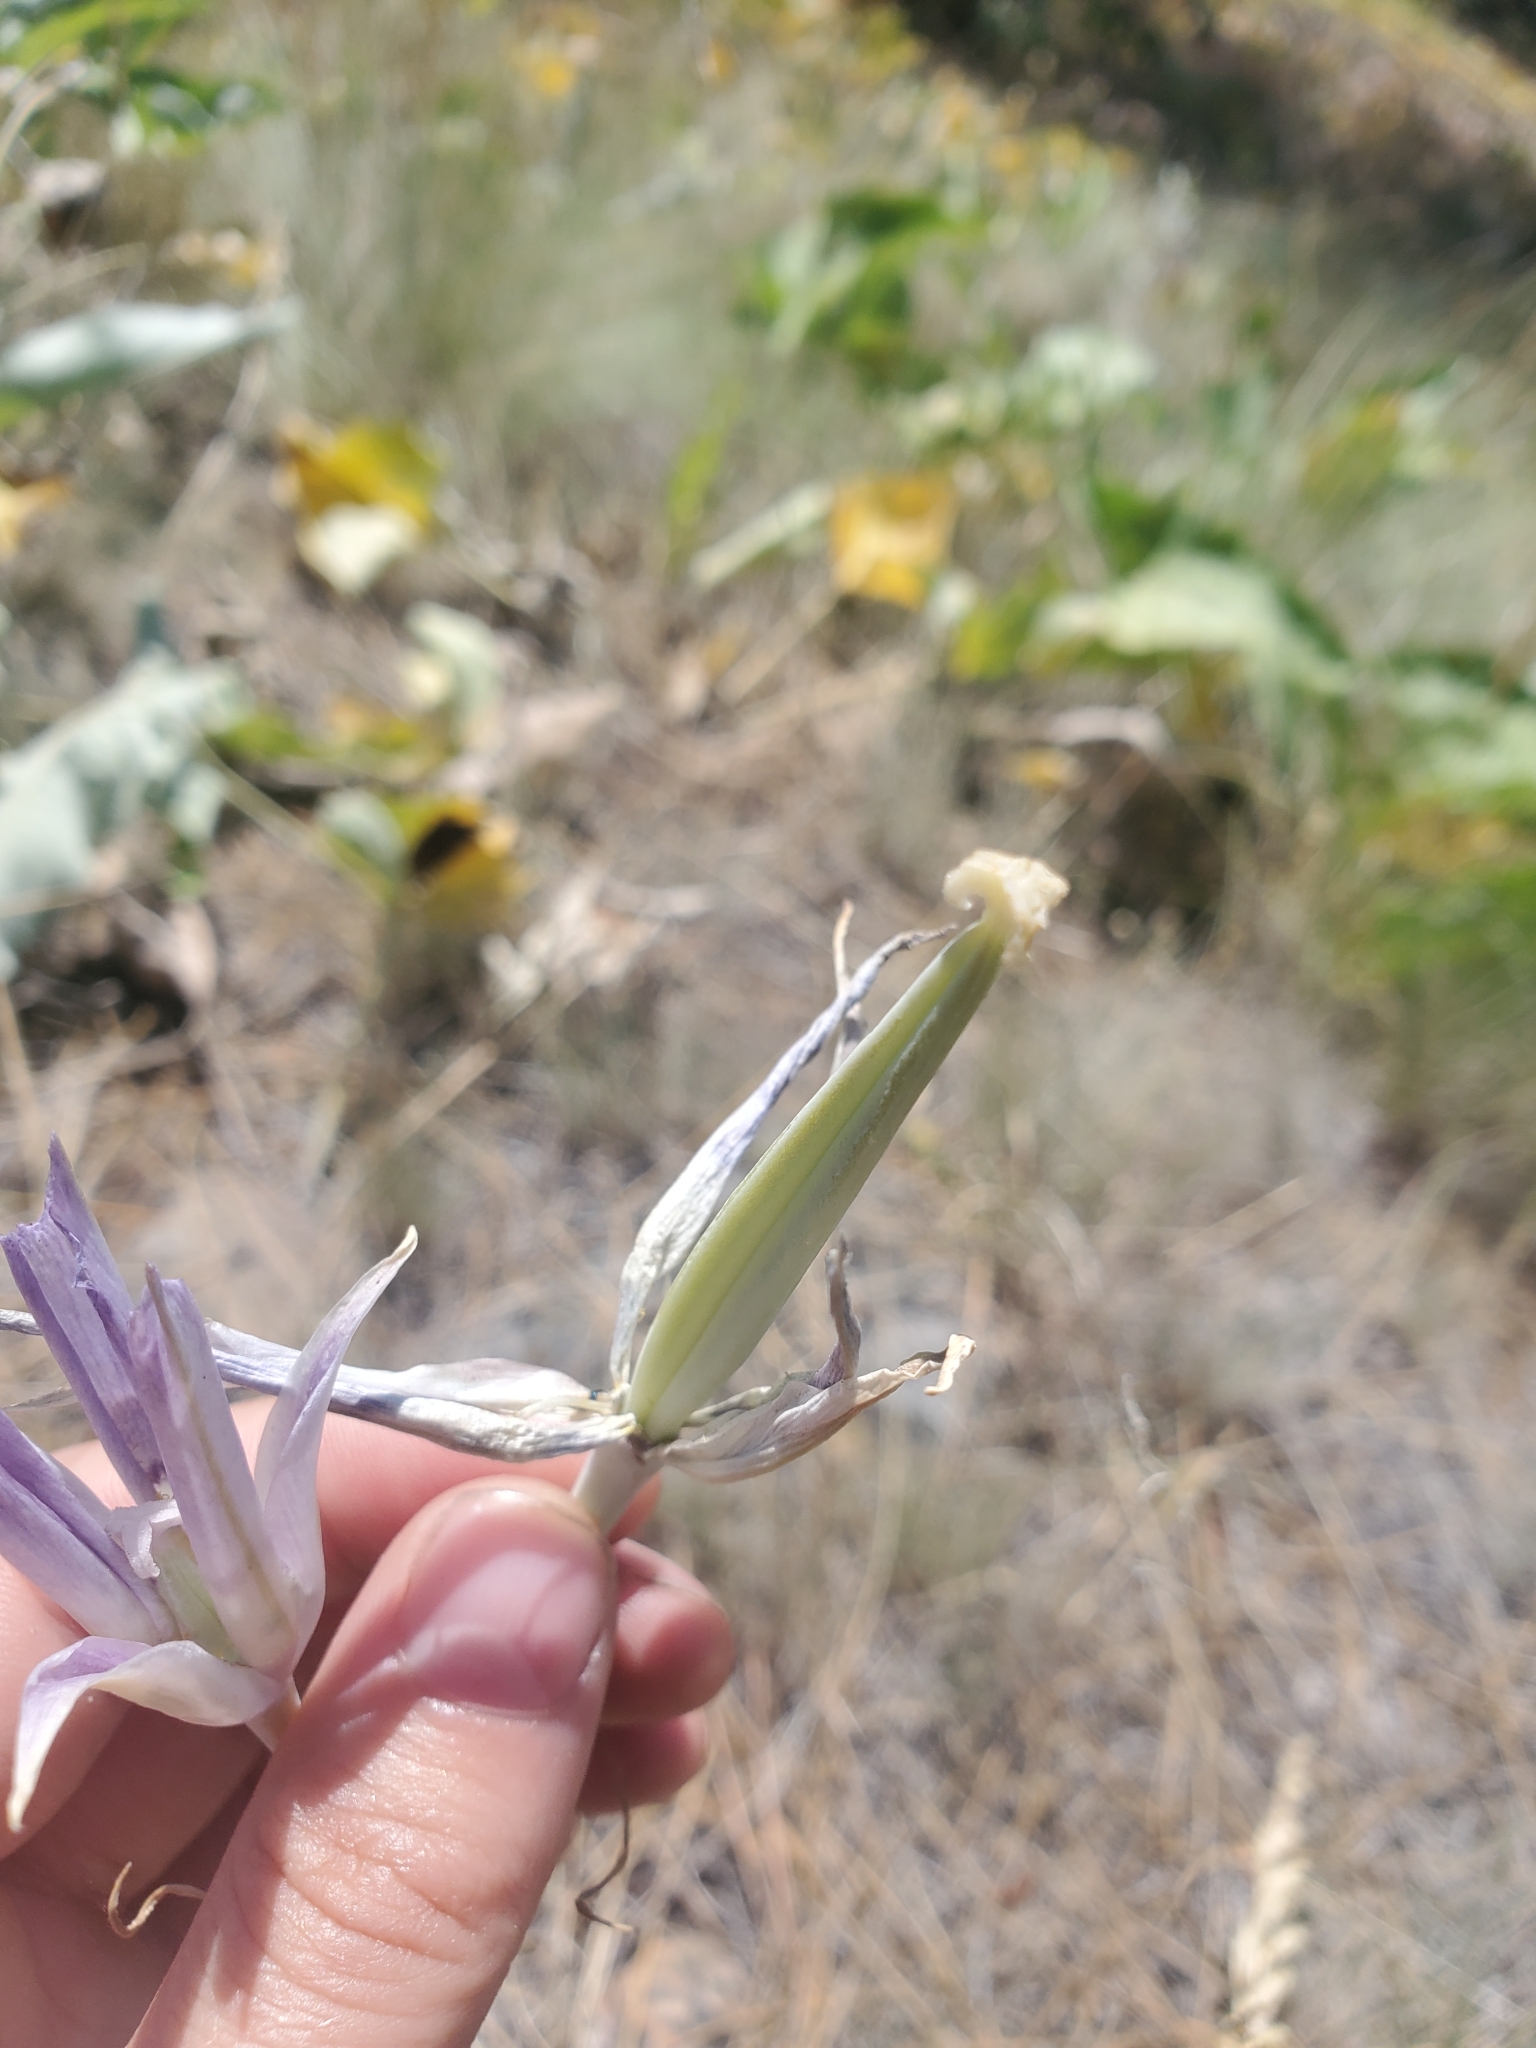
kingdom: Plantae
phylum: Tracheophyta
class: Liliopsida
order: Liliales
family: Liliaceae
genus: Calochortus
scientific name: Calochortus macrocarpus
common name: Green-band mariposa lily
